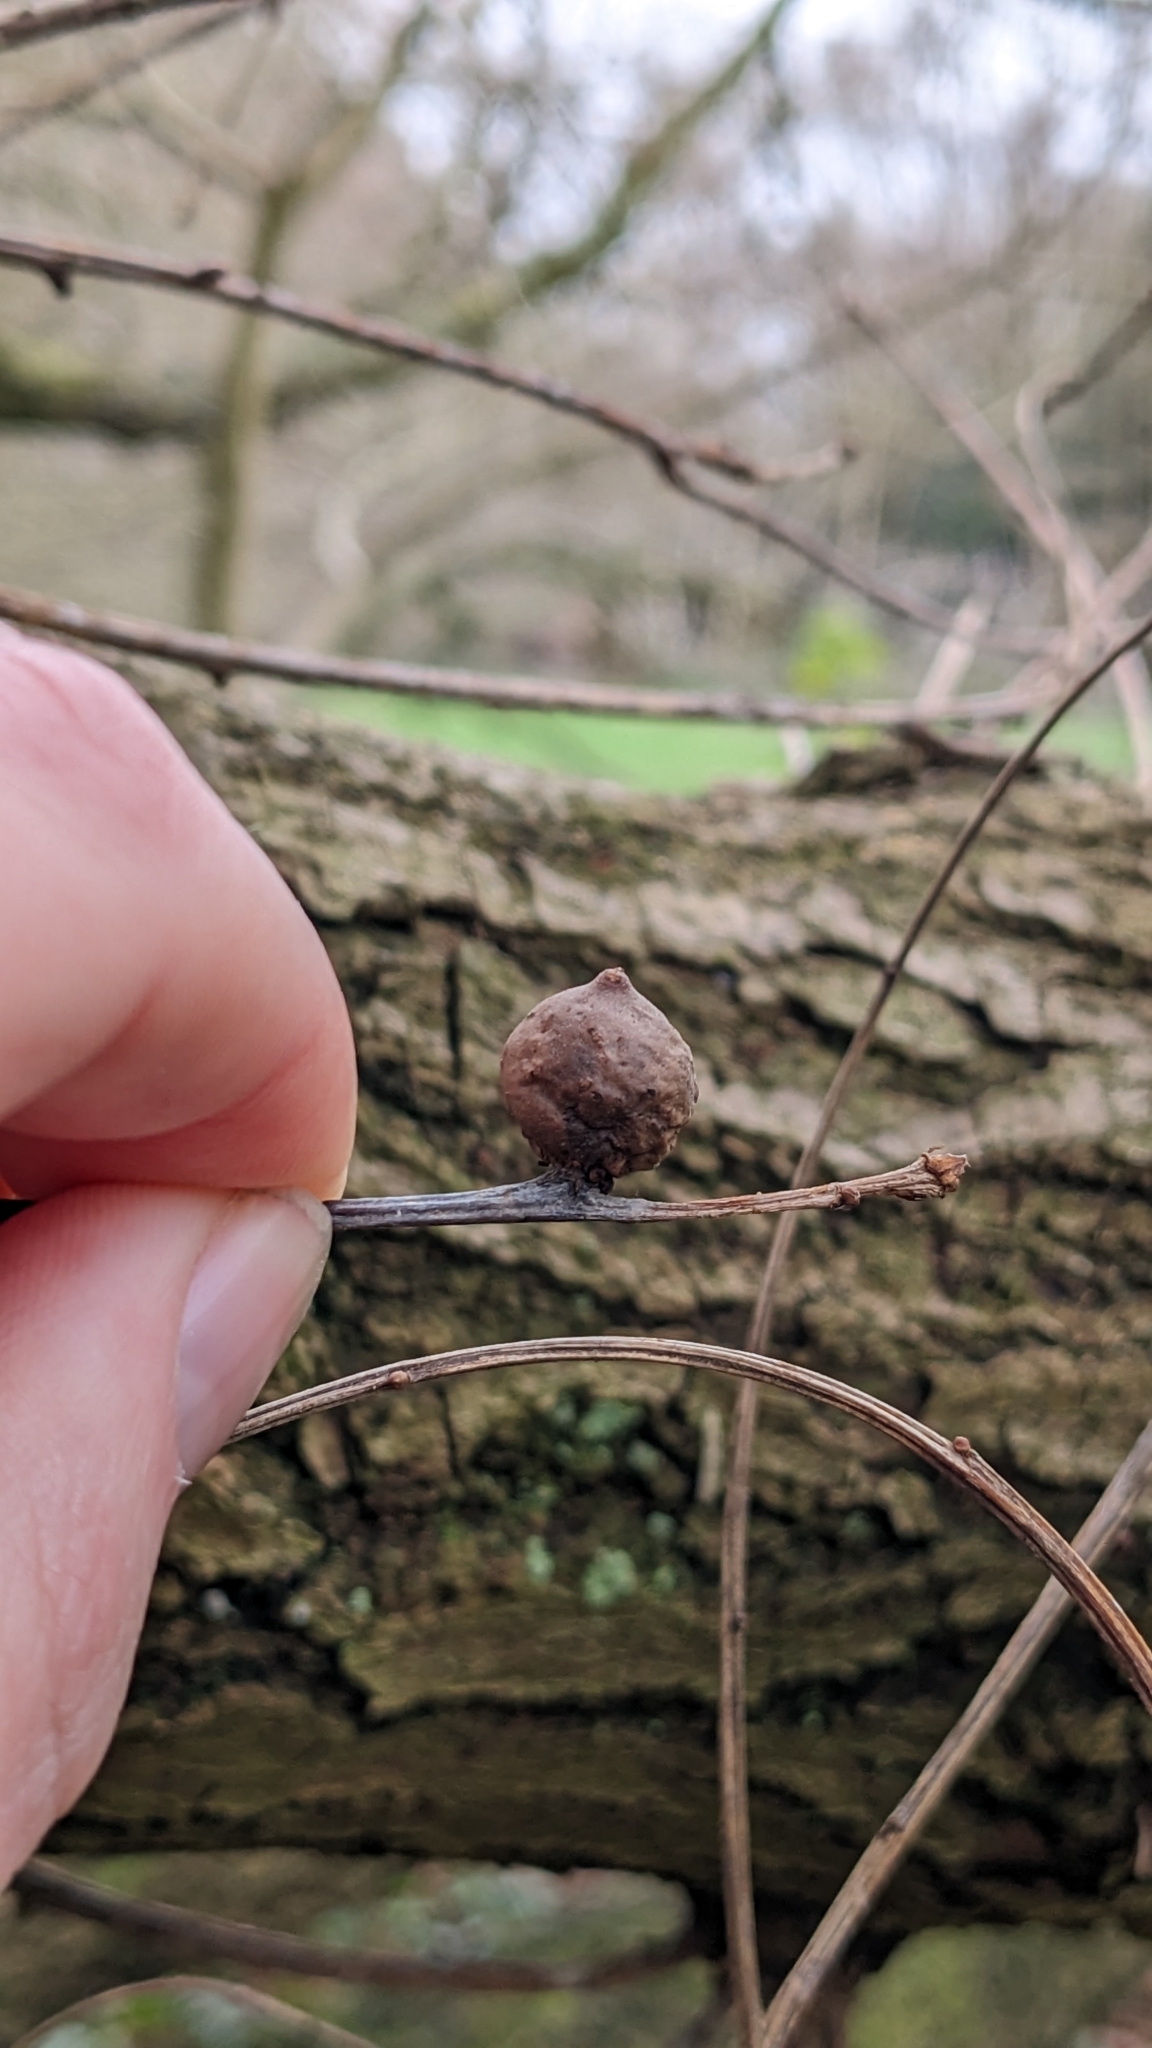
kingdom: Animalia
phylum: Arthropoda
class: Insecta
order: Hymenoptera
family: Cynipidae
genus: Andricus
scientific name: Andricus kollari
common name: Marble gall
